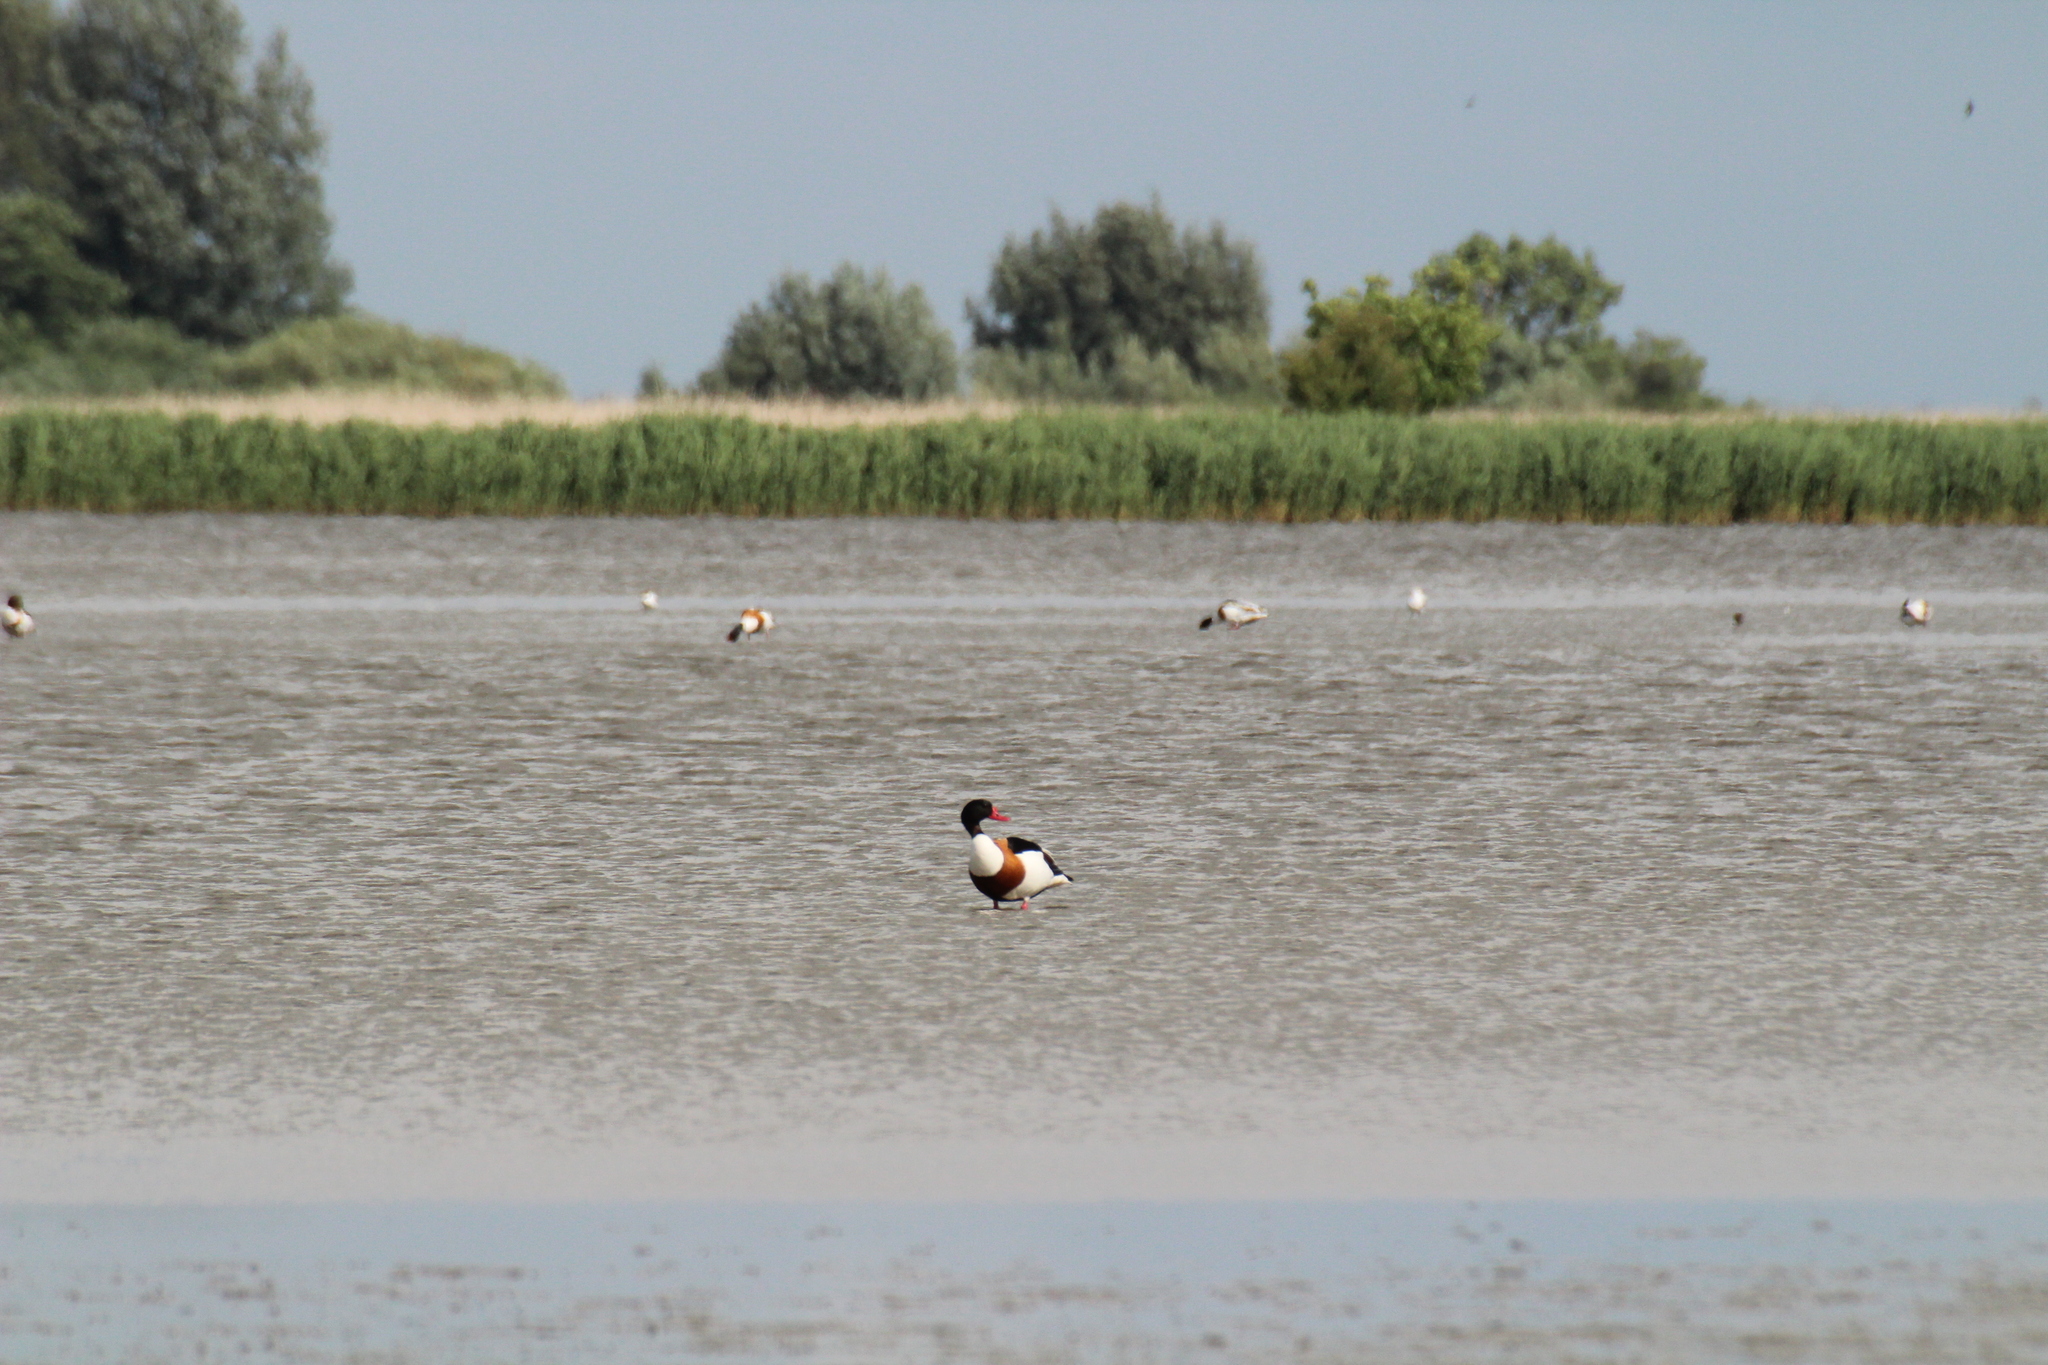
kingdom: Animalia
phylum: Chordata
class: Aves
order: Anseriformes
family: Anatidae
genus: Tadorna
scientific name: Tadorna tadorna
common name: Common shelduck
